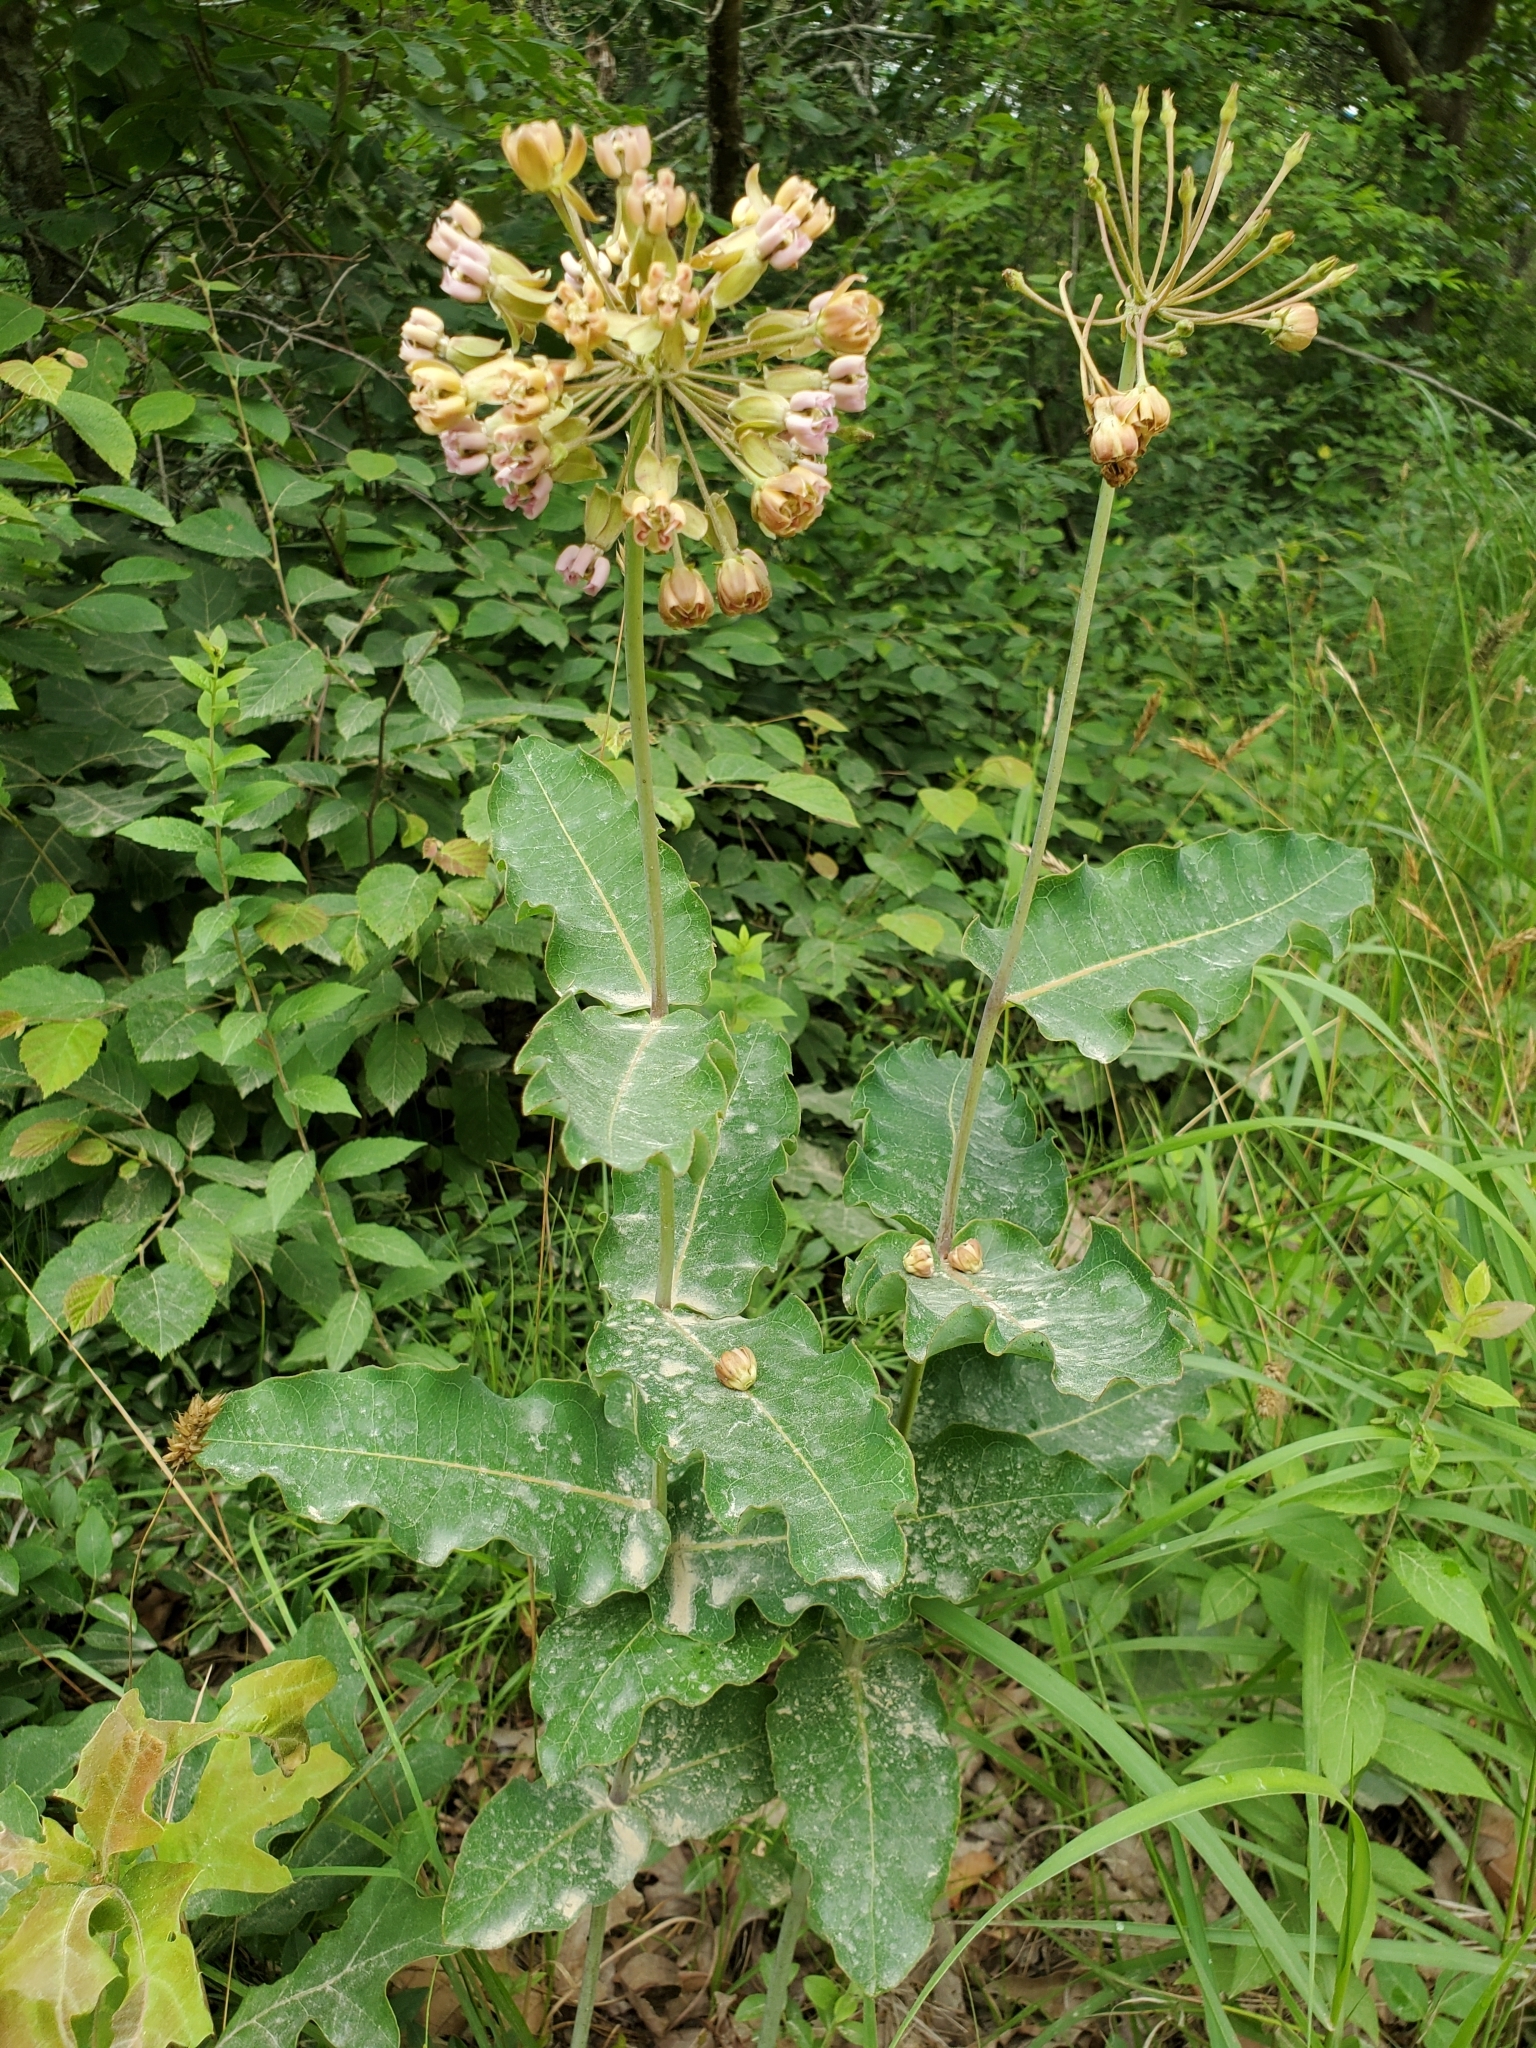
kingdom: Plantae
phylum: Tracheophyta
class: Magnoliopsida
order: Gentianales
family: Apocynaceae
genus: Asclepias
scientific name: Asclepias amplexicaulis
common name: Blunt-leaf milkweed
